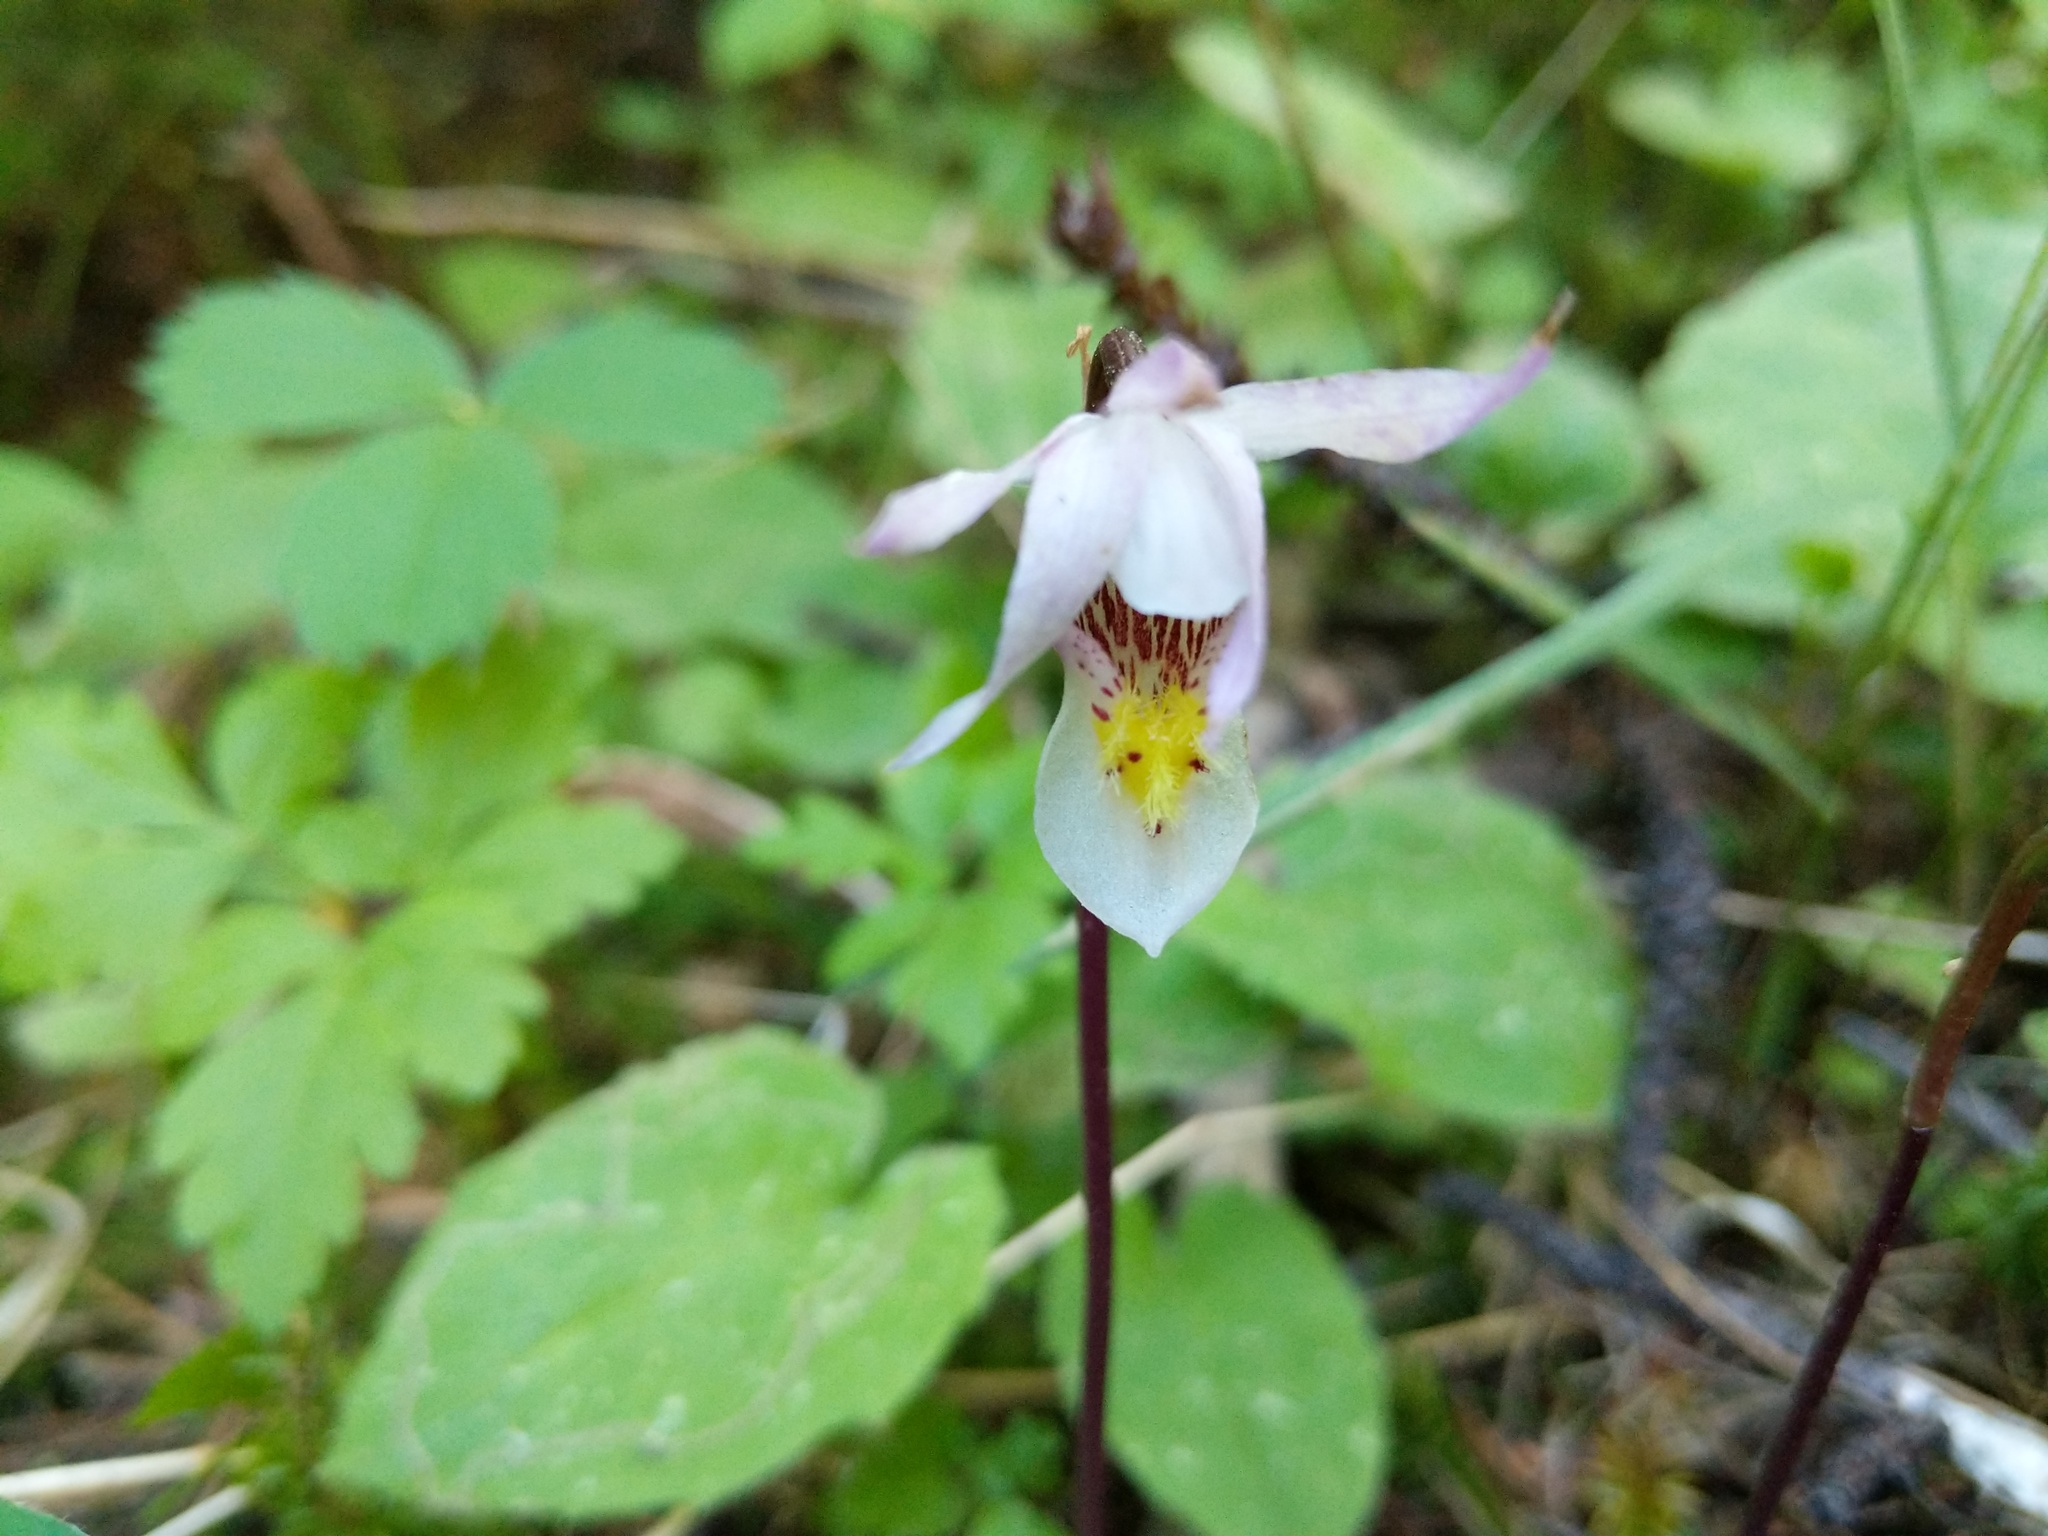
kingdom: Plantae
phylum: Tracheophyta
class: Liliopsida
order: Asparagales
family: Orchidaceae
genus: Calypso
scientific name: Calypso bulbosa
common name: Calypso
